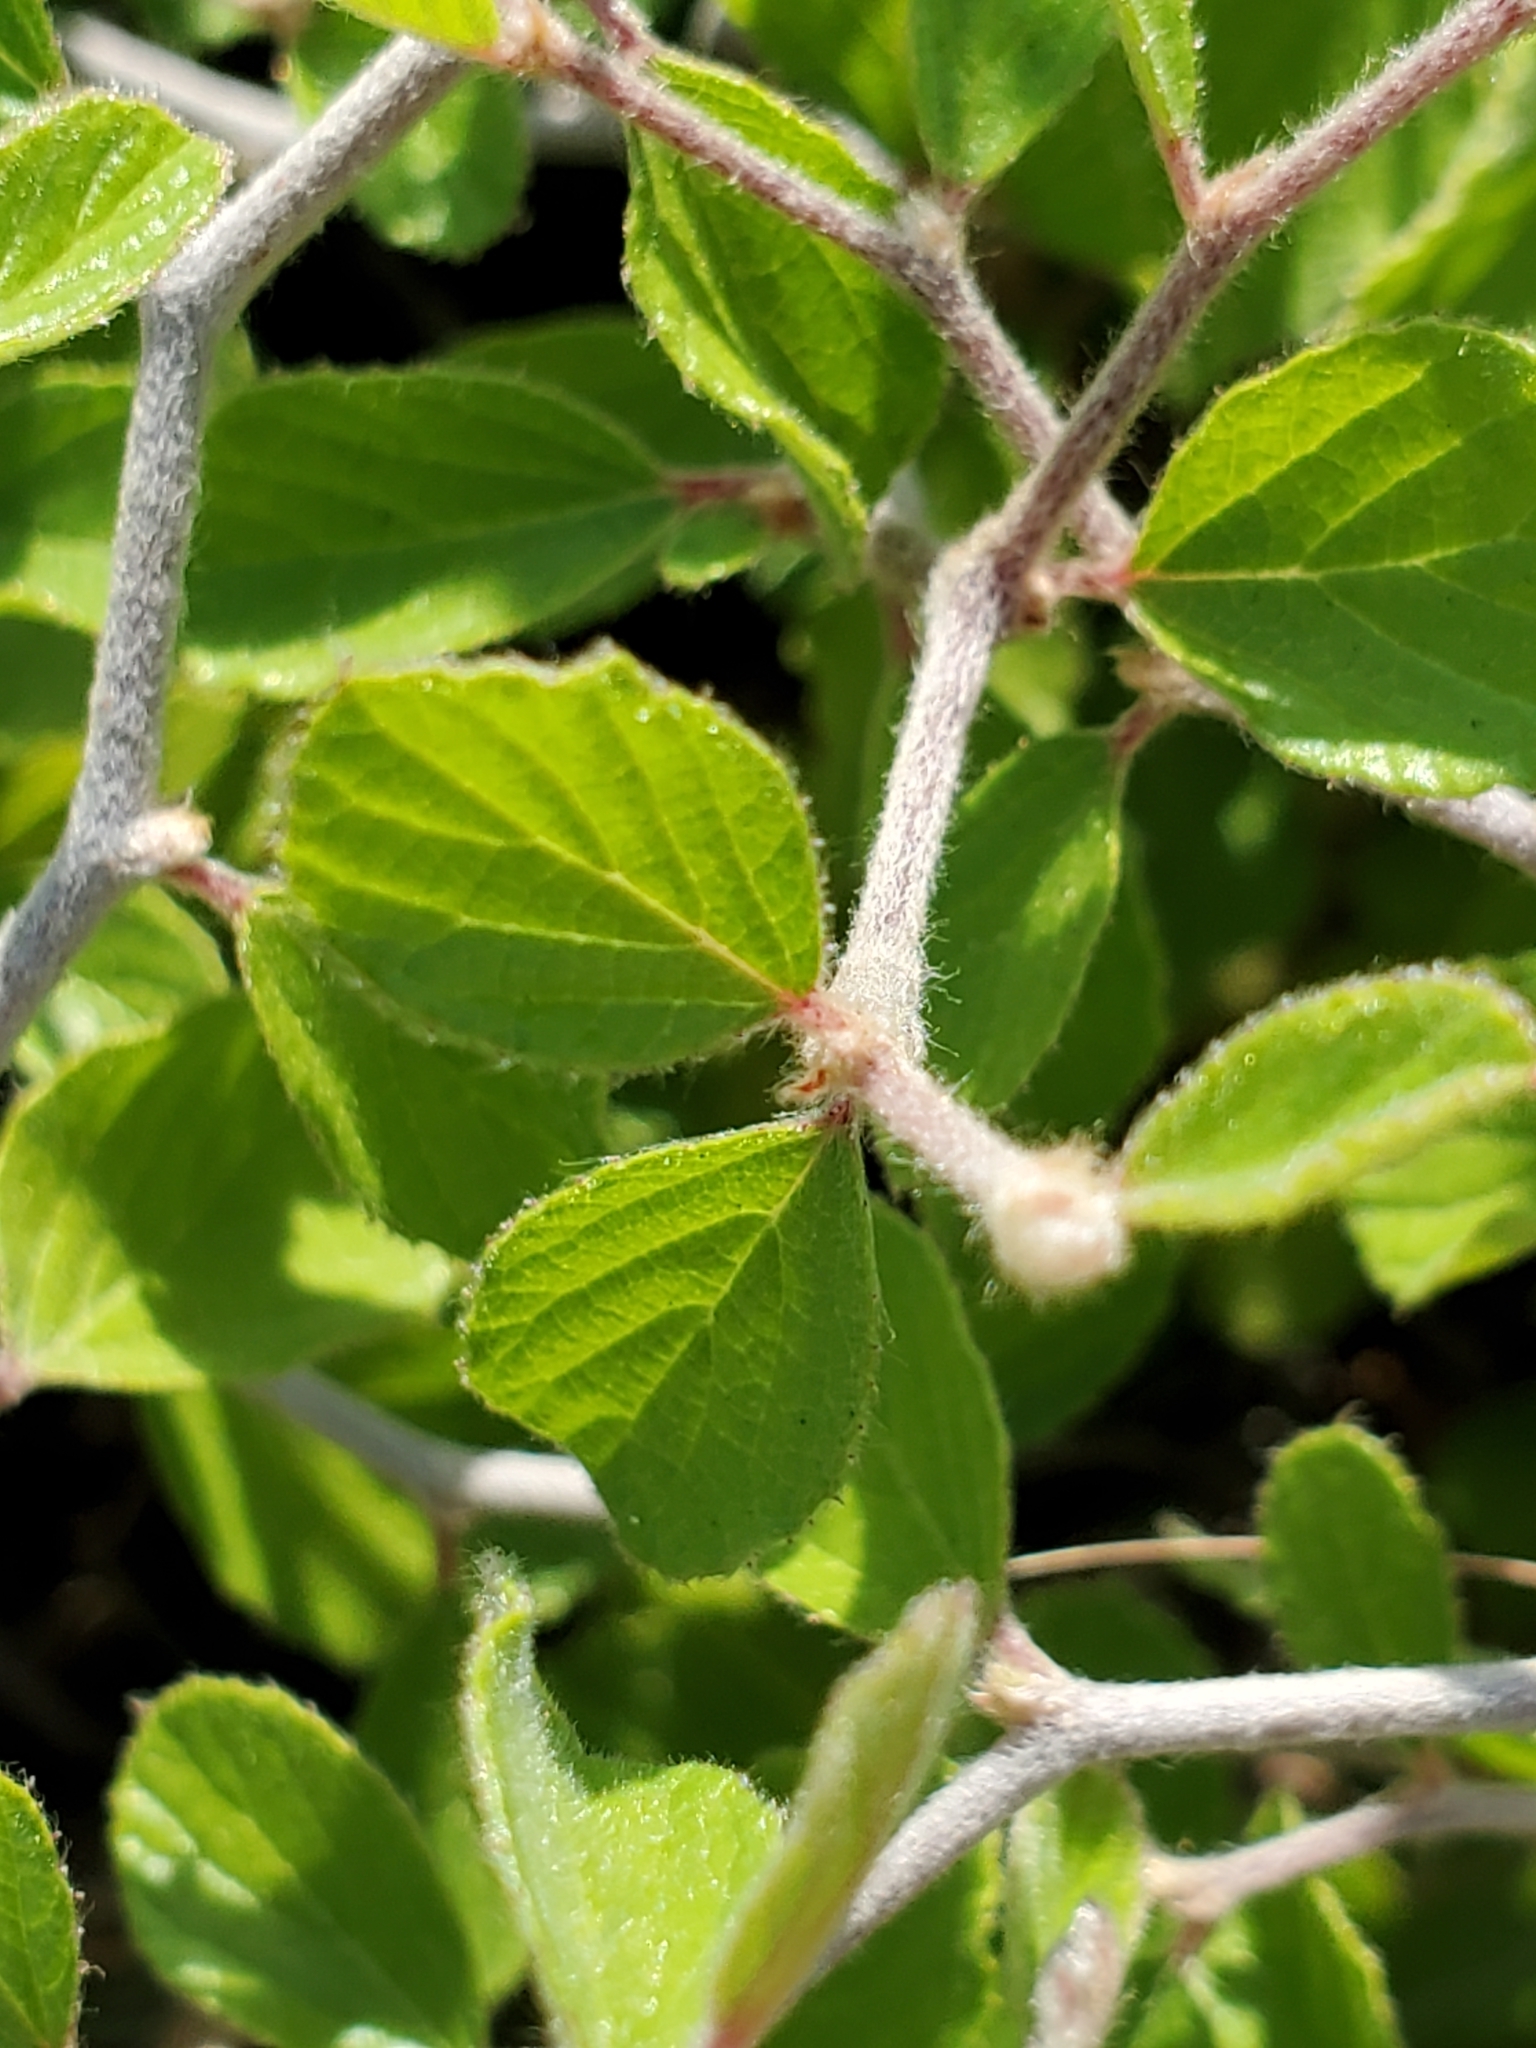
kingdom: Plantae
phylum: Tracheophyta
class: Magnoliopsida
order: Rosales
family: Rhamnaceae
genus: Colubrina
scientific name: Colubrina texensis
